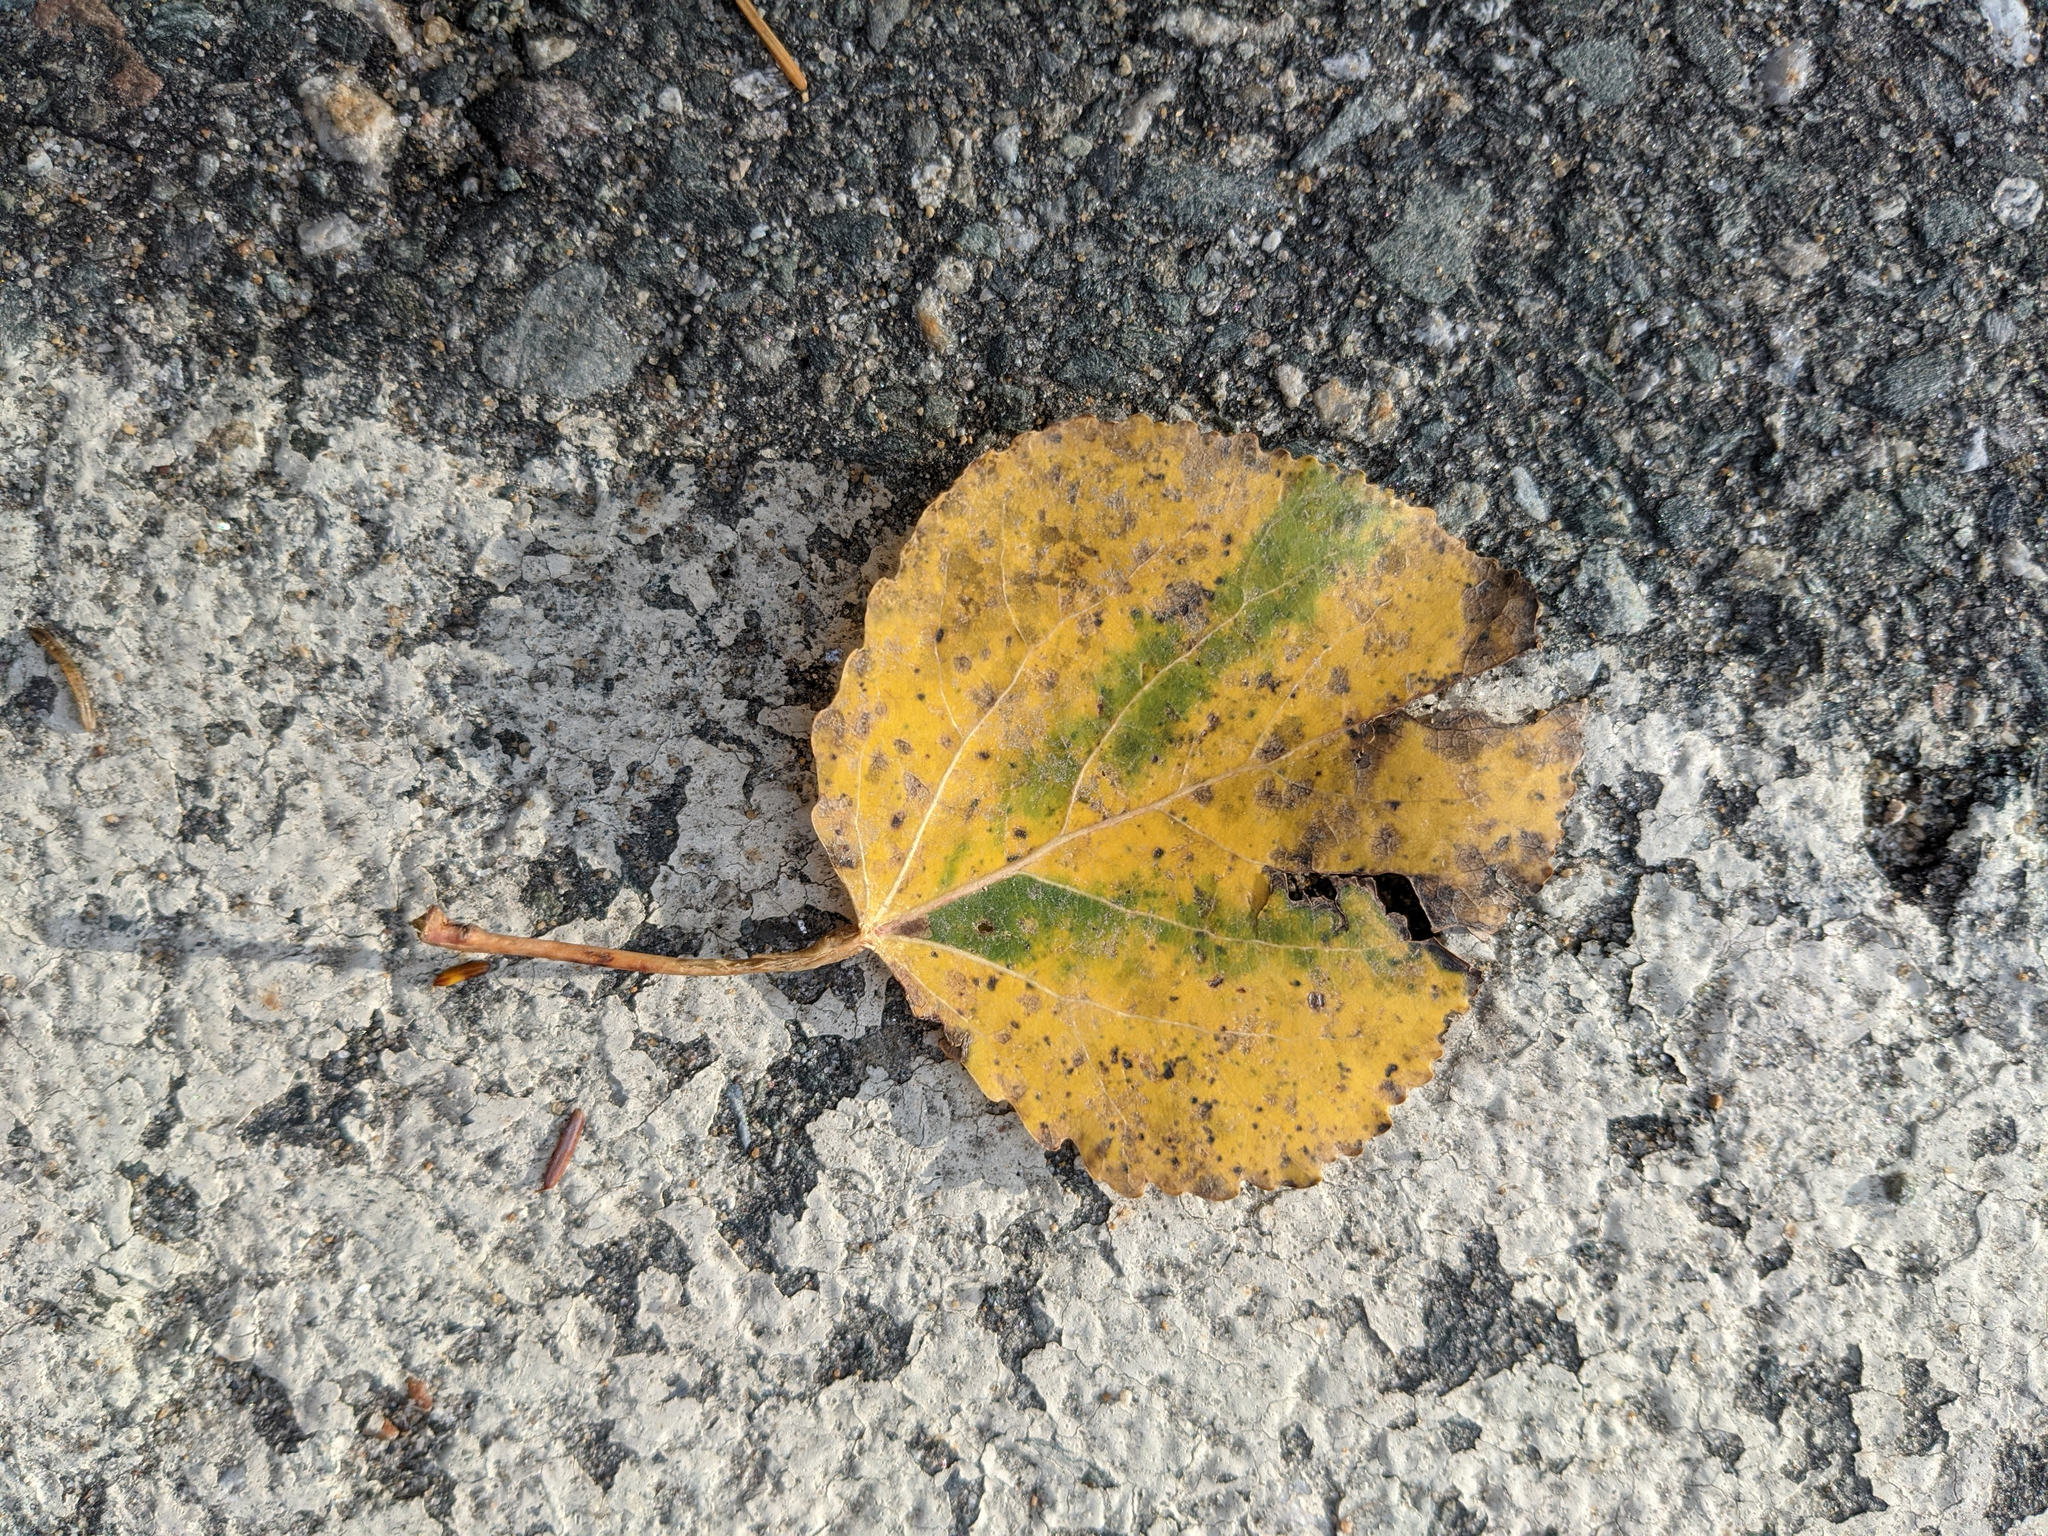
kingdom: Plantae
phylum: Tracheophyta
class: Magnoliopsida
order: Malpighiales
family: Salicaceae
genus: Populus
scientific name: Populus tremuloides
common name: Quaking aspen
